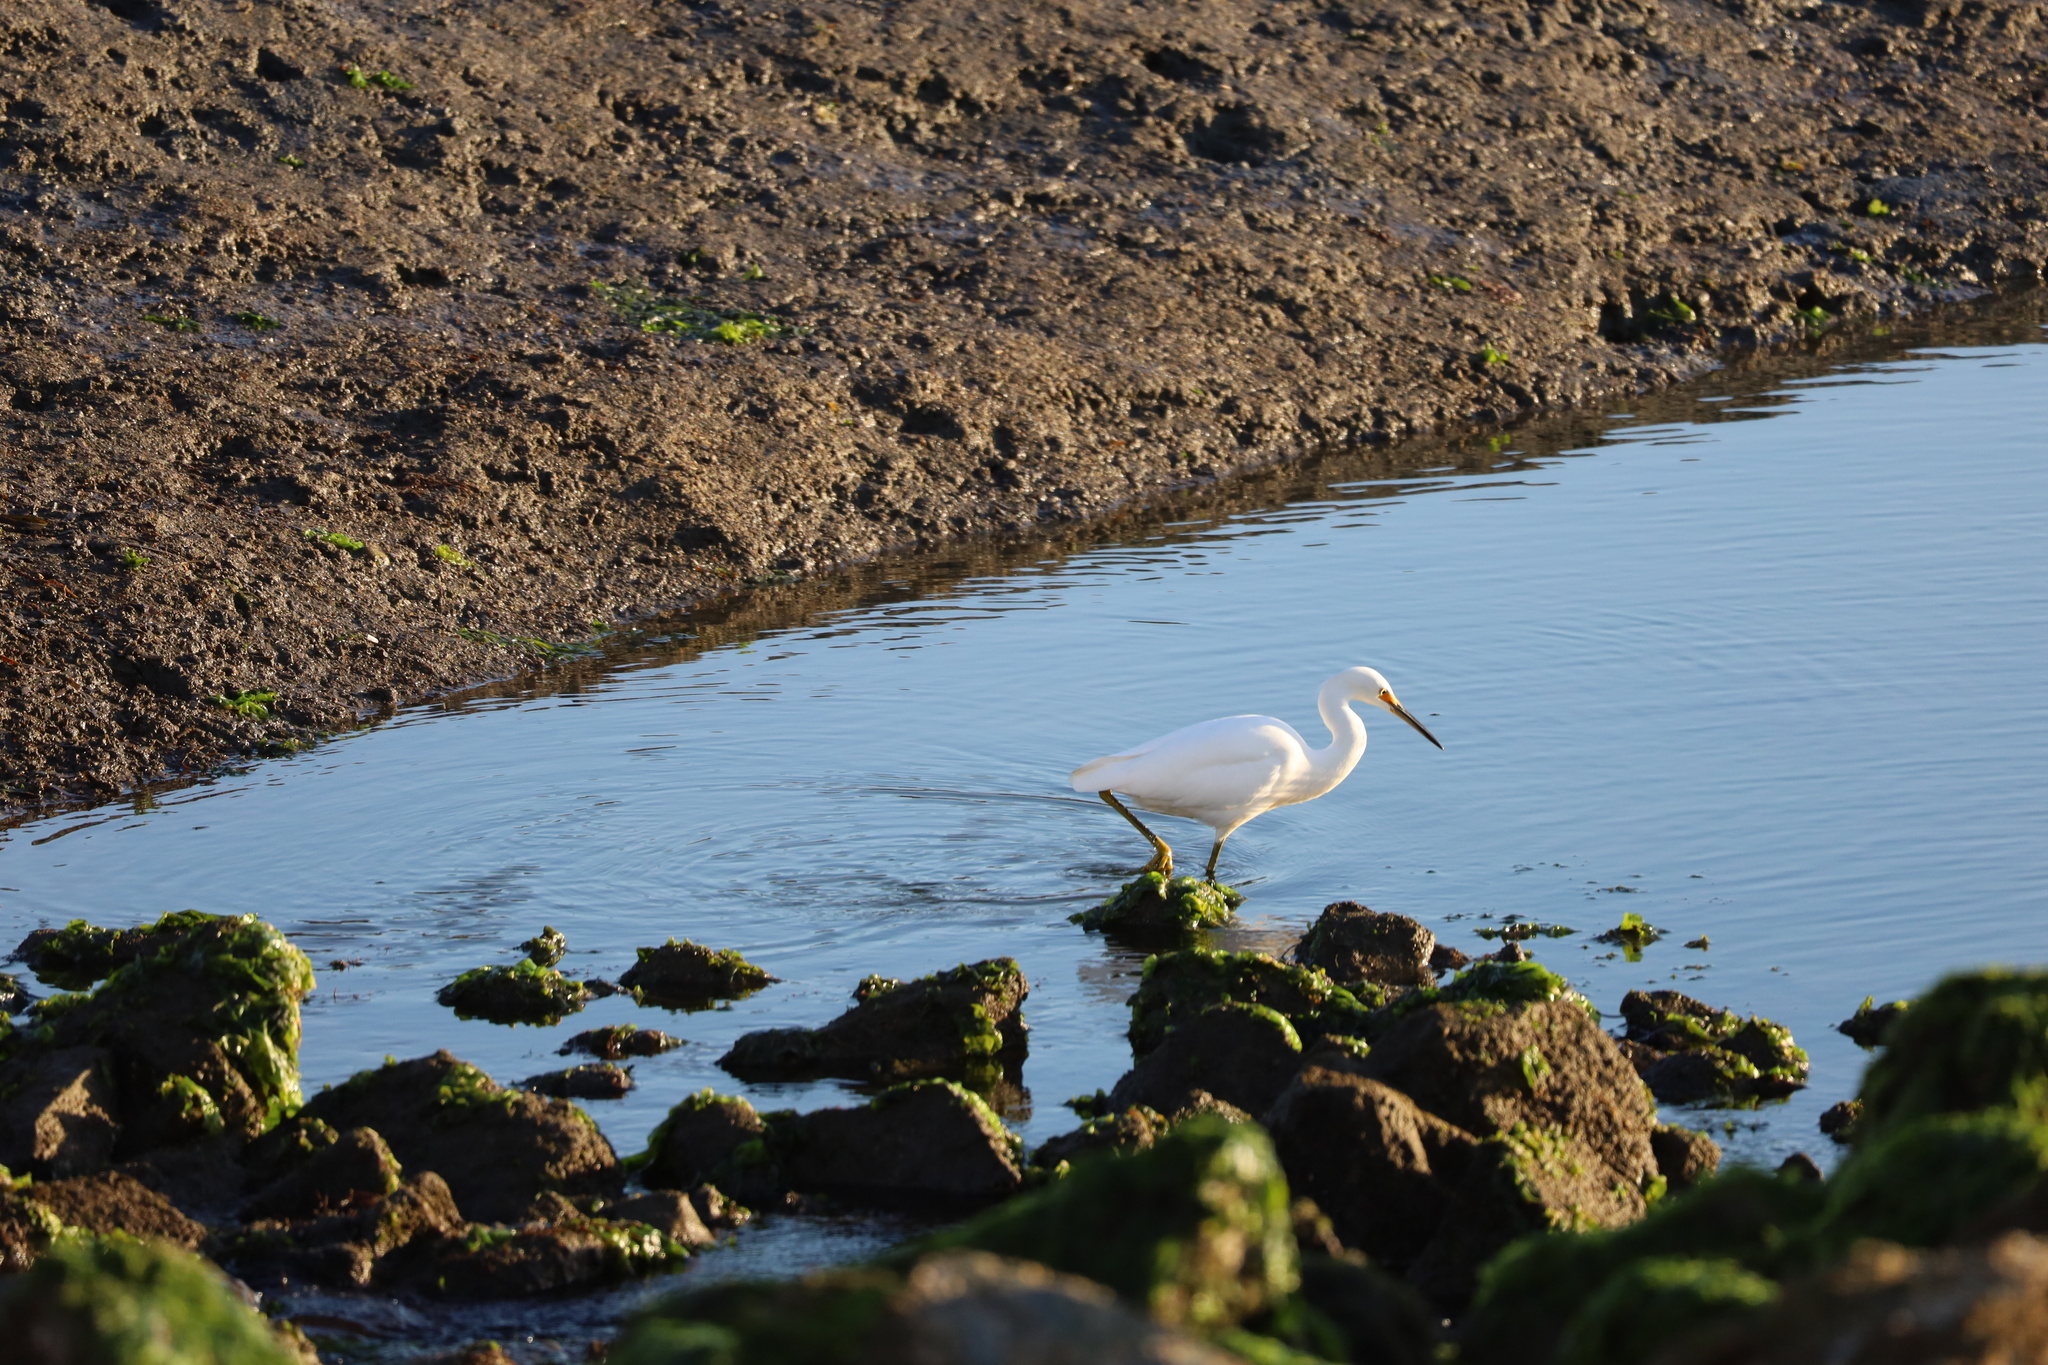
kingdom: Animalia
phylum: Chordata
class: Aves
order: Pelecaniformes
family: Ardeidae
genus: Egretta
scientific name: Egretta thula
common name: Snowy egret
